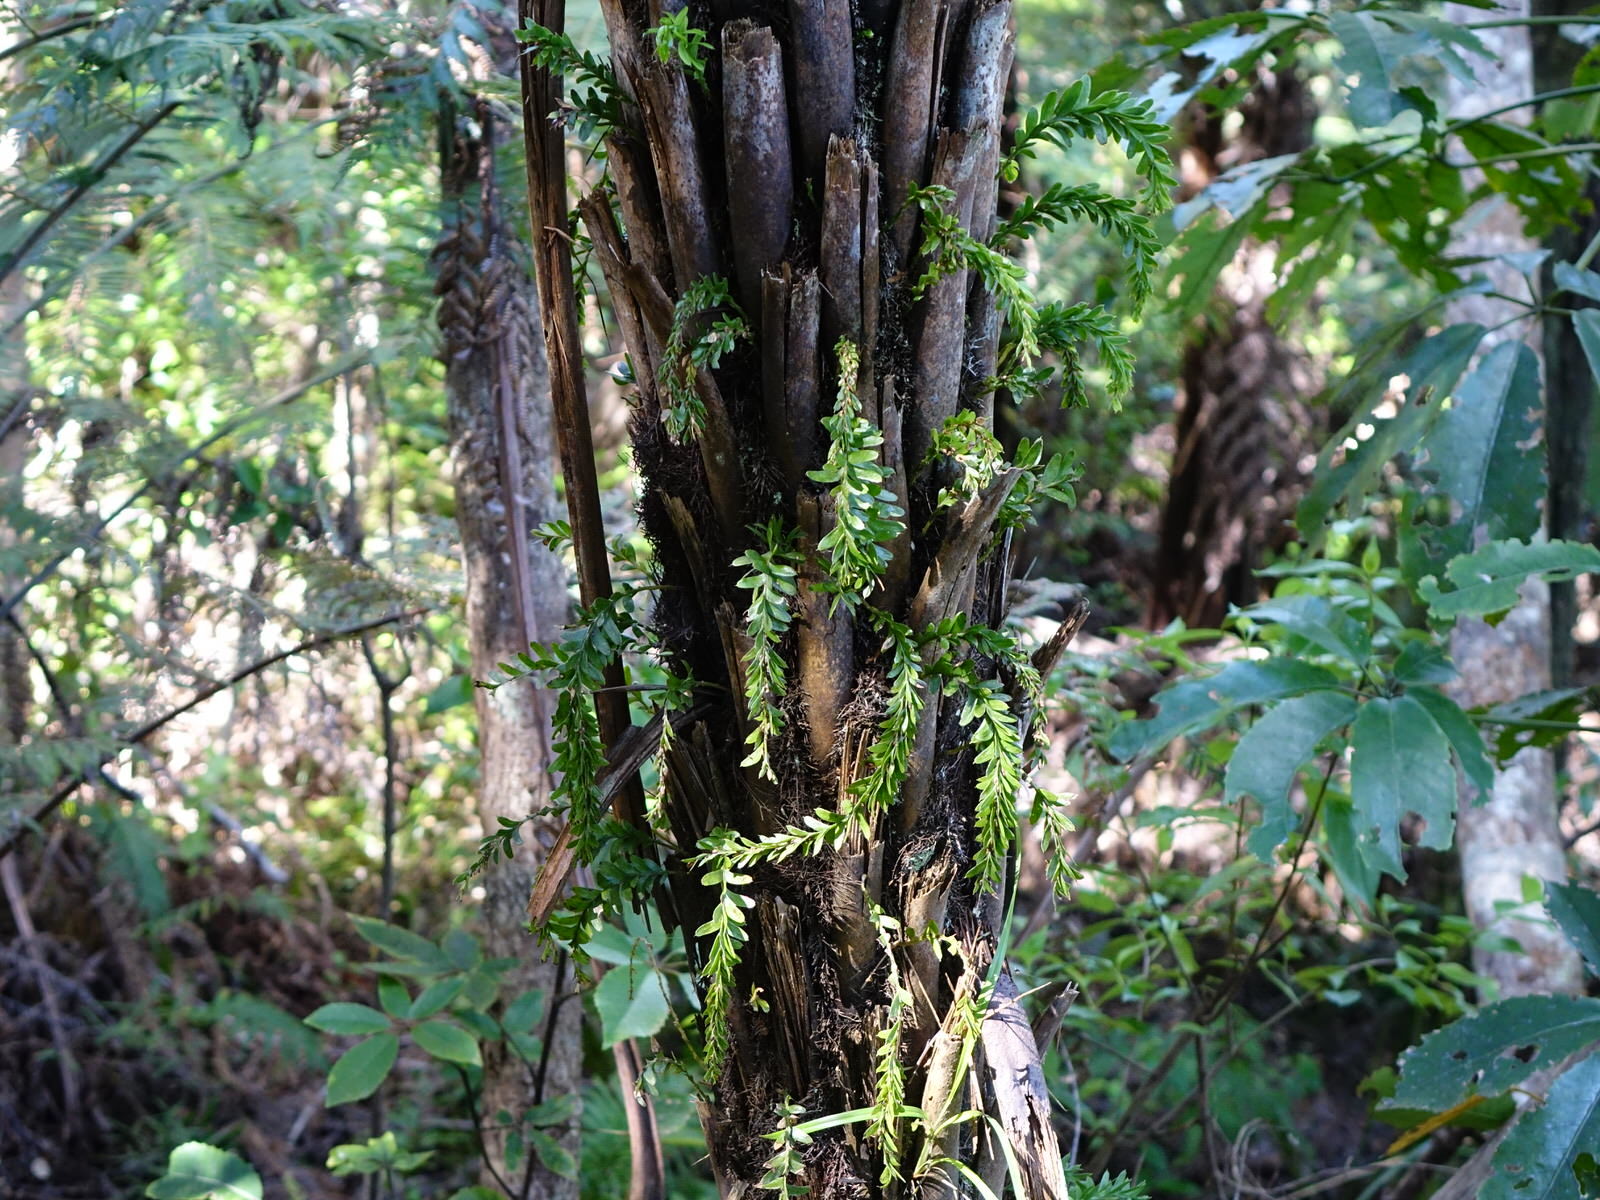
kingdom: Plantae
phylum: Tracheophyta
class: Polypodiopsida
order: Psilotales
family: Psilotaceae
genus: Tmesipteris
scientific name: Tmesipteris tannensis
